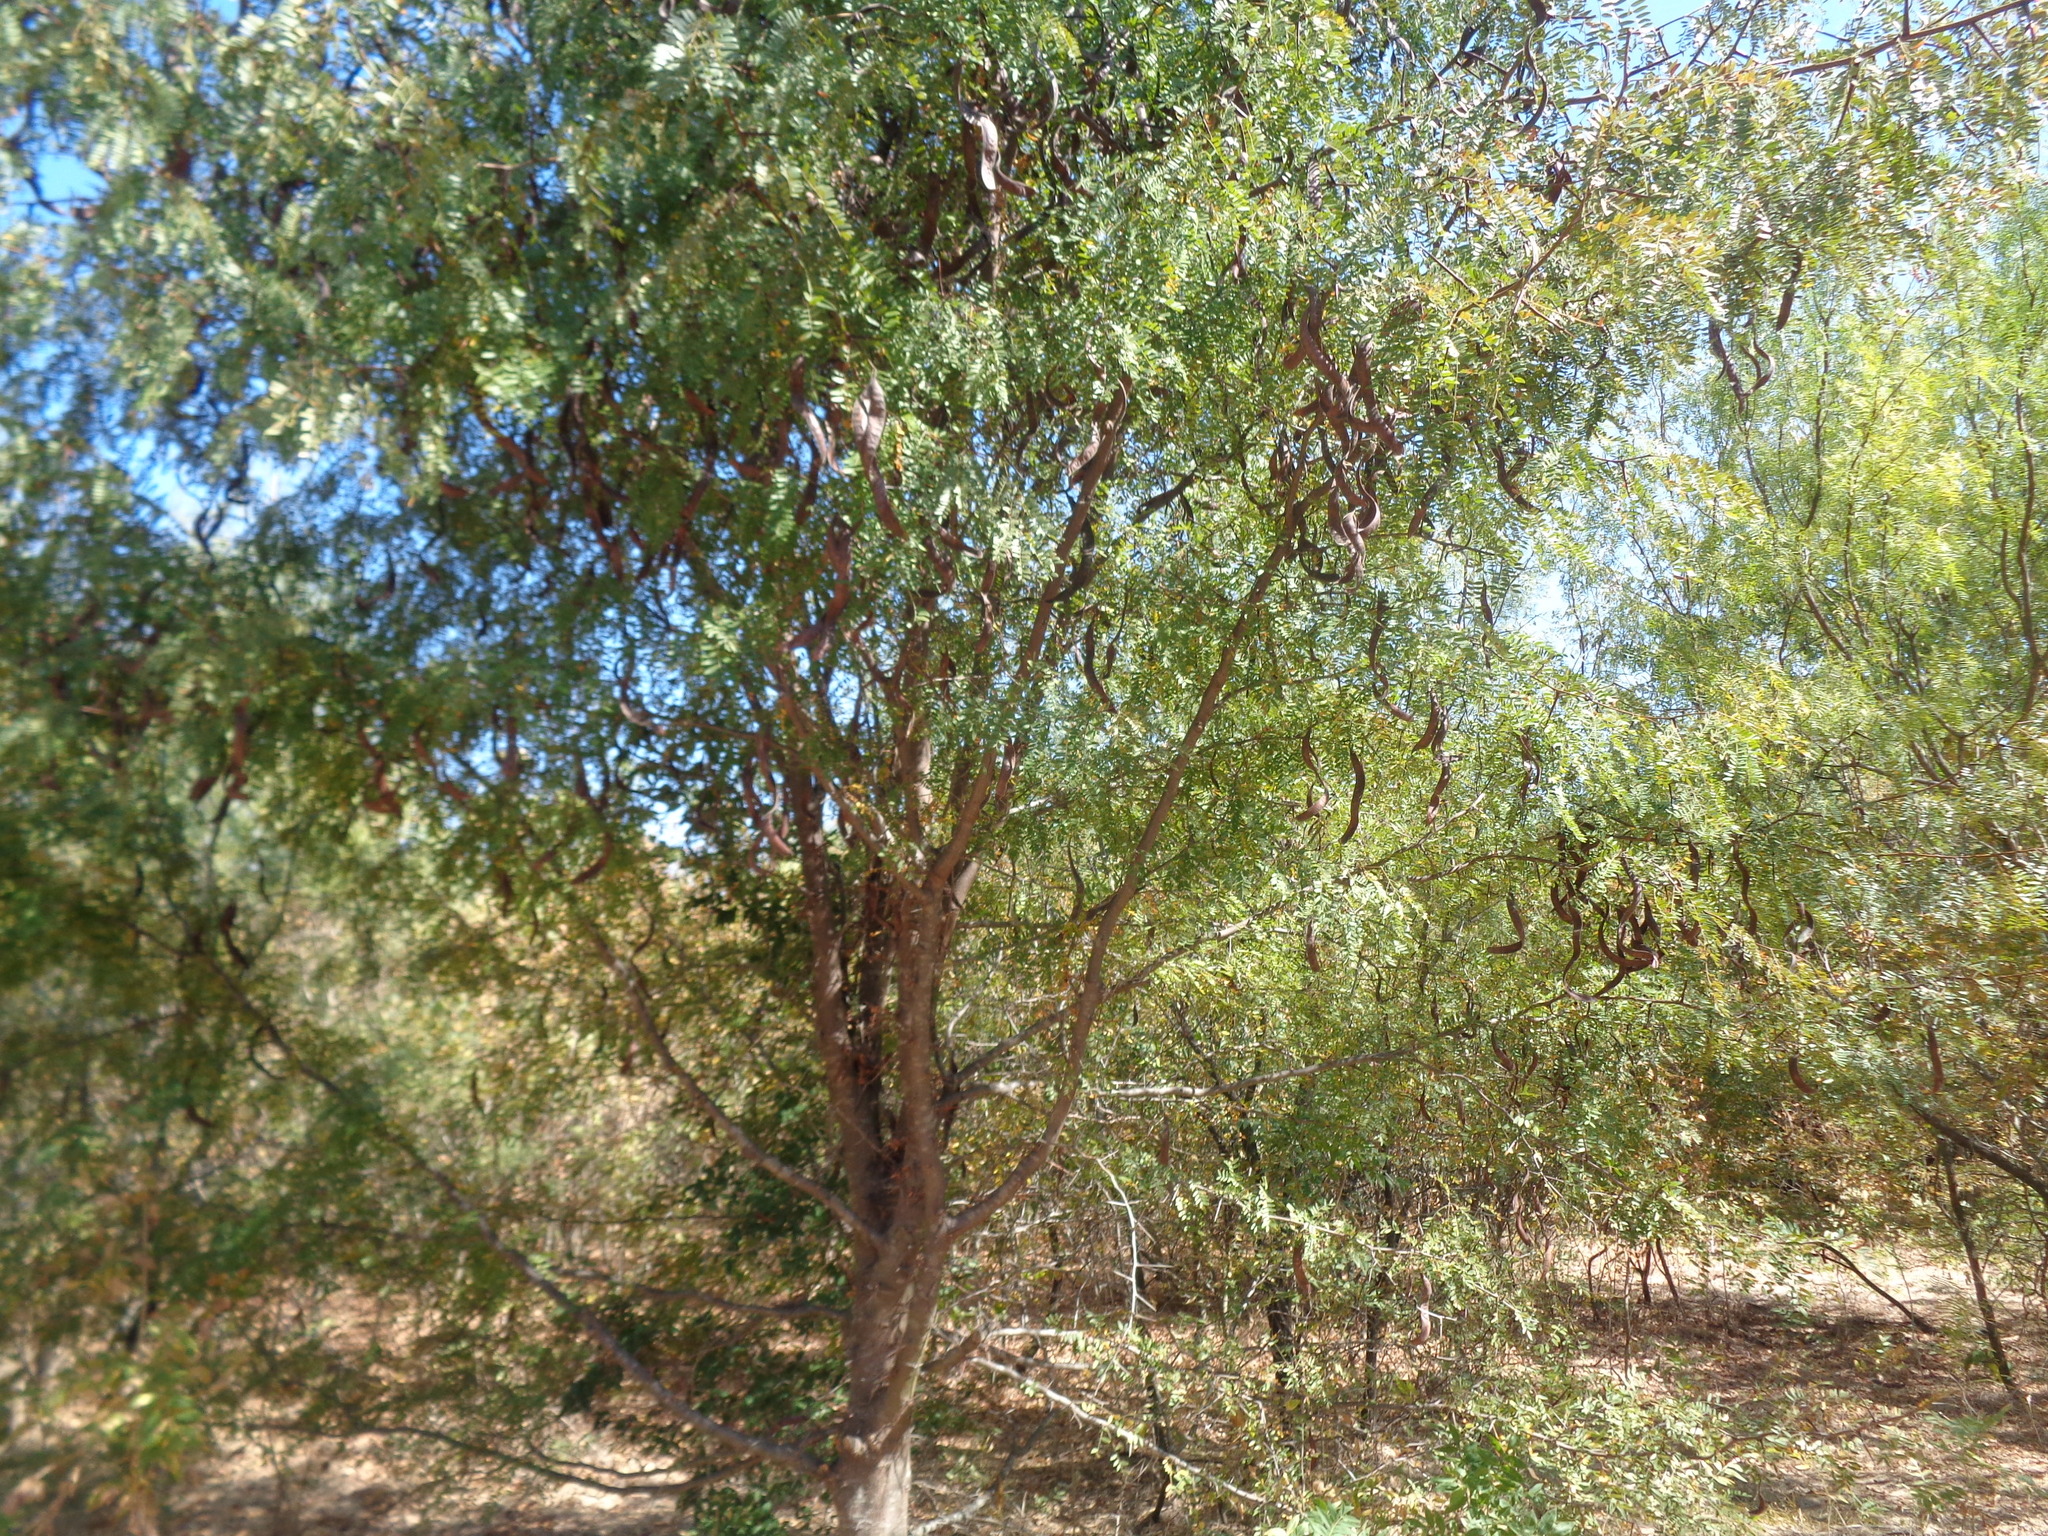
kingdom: Plantae
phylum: Tracheophyta
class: Magnoliopsida
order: Fabales
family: Fabaceae
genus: Gleditsia
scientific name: Gleditsia triacanthos
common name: Common honeylocust
